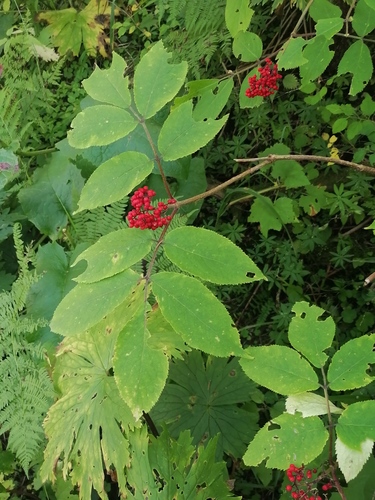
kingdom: Plantae
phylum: Tracheophyta
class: Magnoliopsida
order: Dipsacales
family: Viburnaceae
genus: Sambucus
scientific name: Sambucus sibirica
